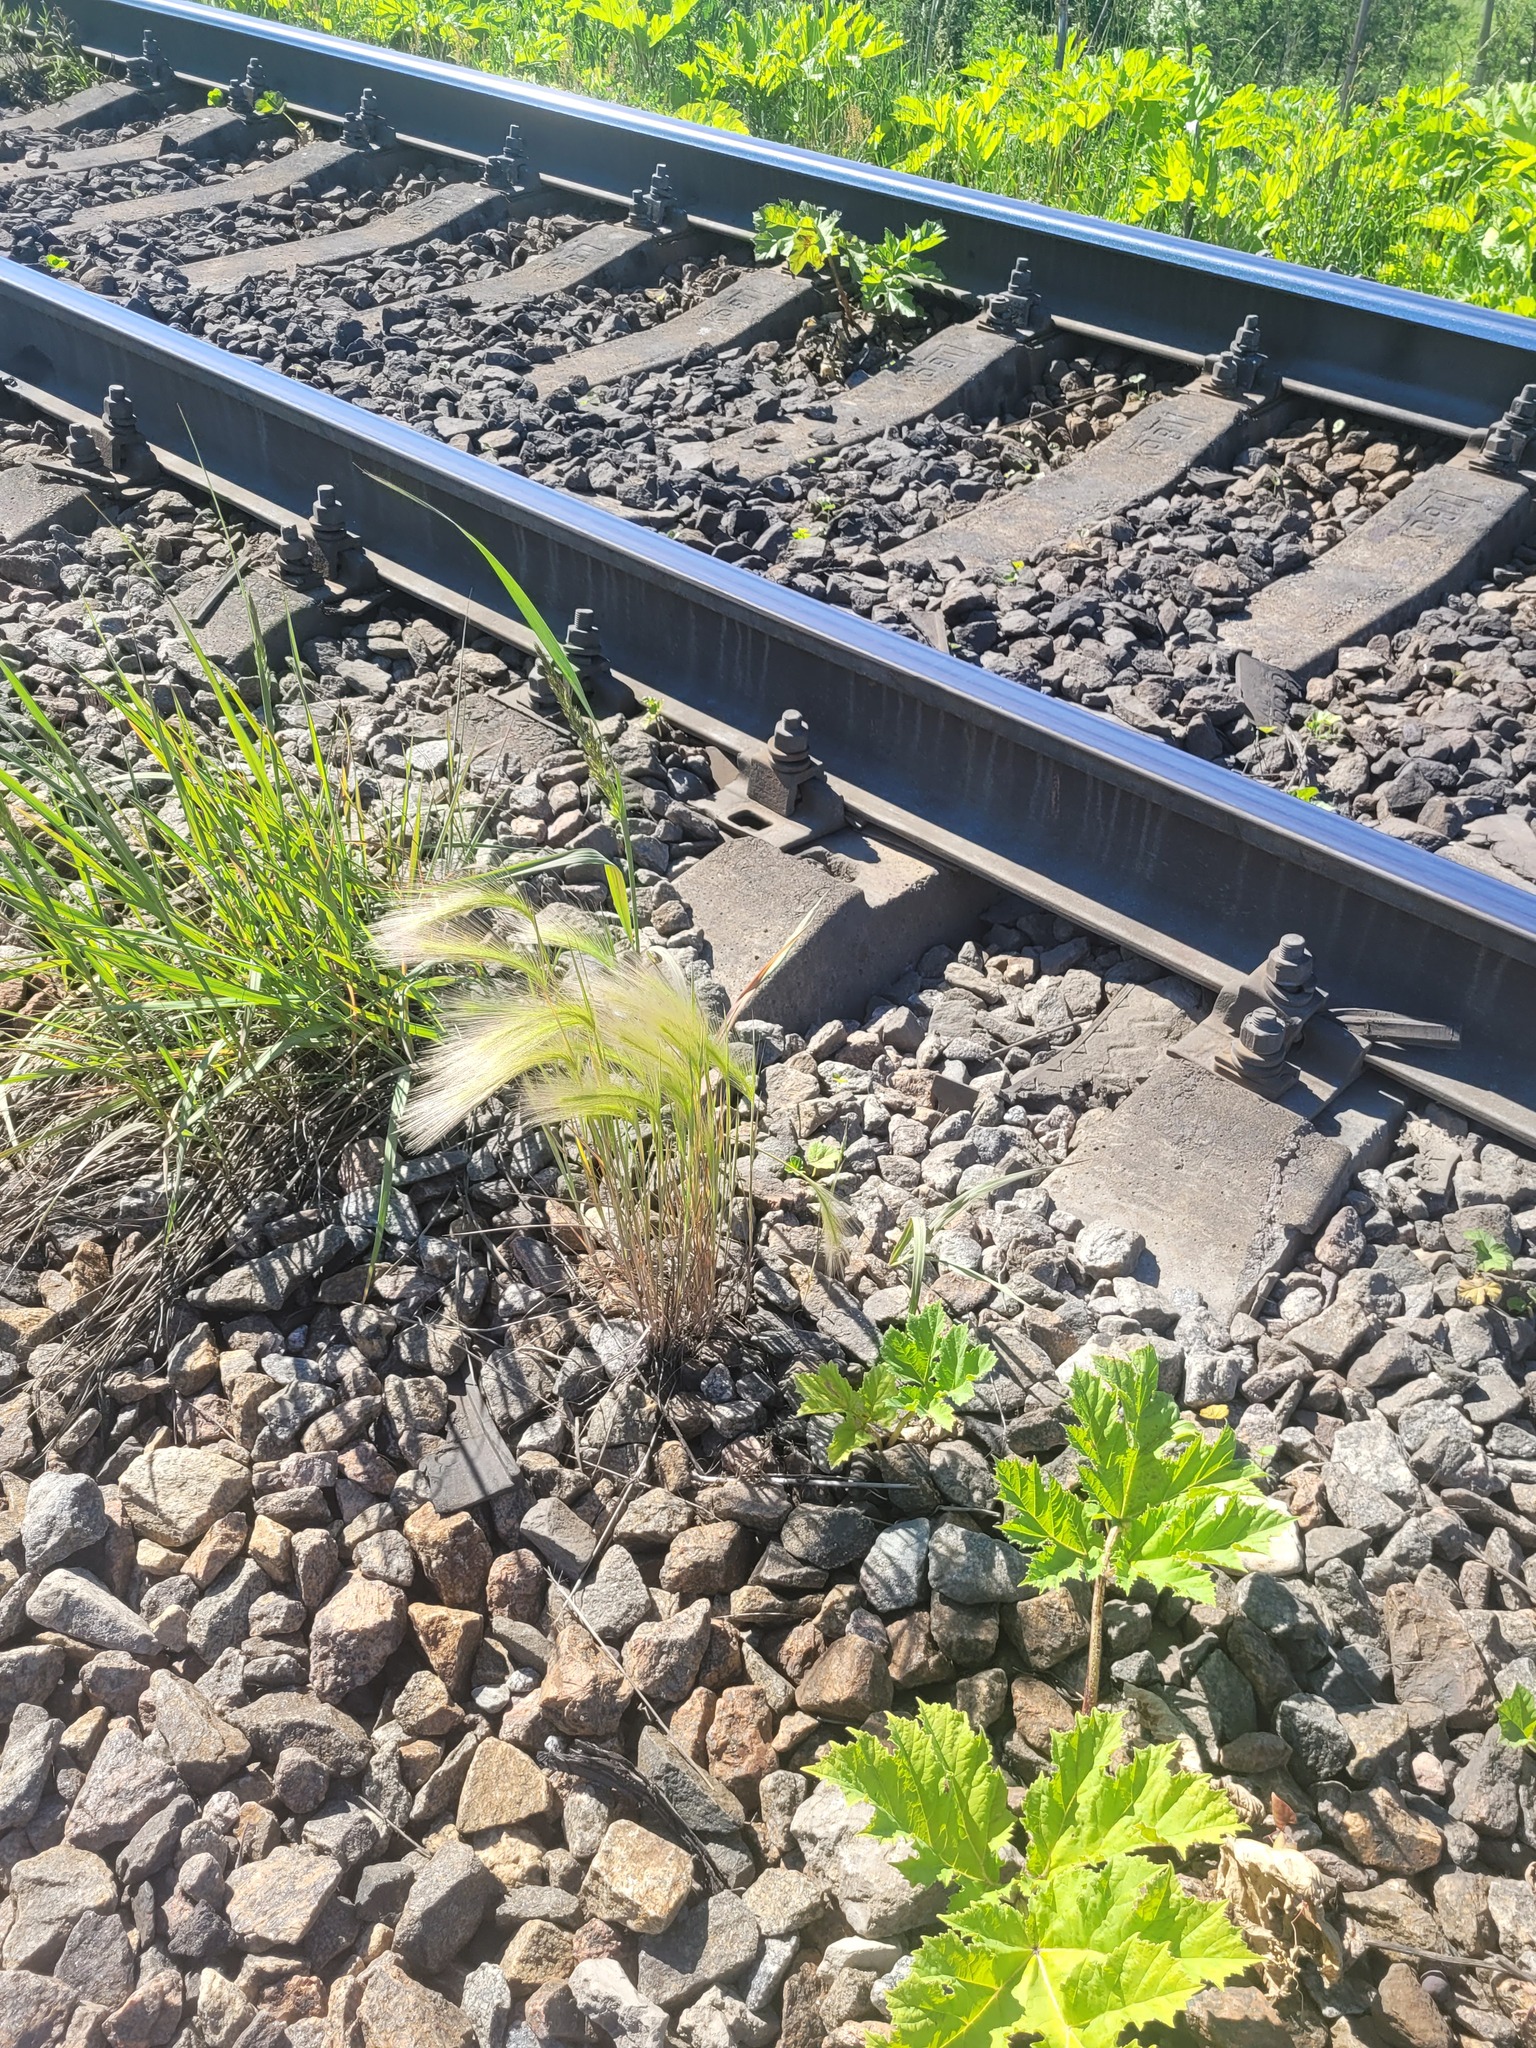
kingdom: Plantae
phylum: Tracheophyta
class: Liliopsida
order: Poales
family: Poaceae
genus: Hordeum
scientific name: Hordeum jubatum
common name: Foxtail barley
